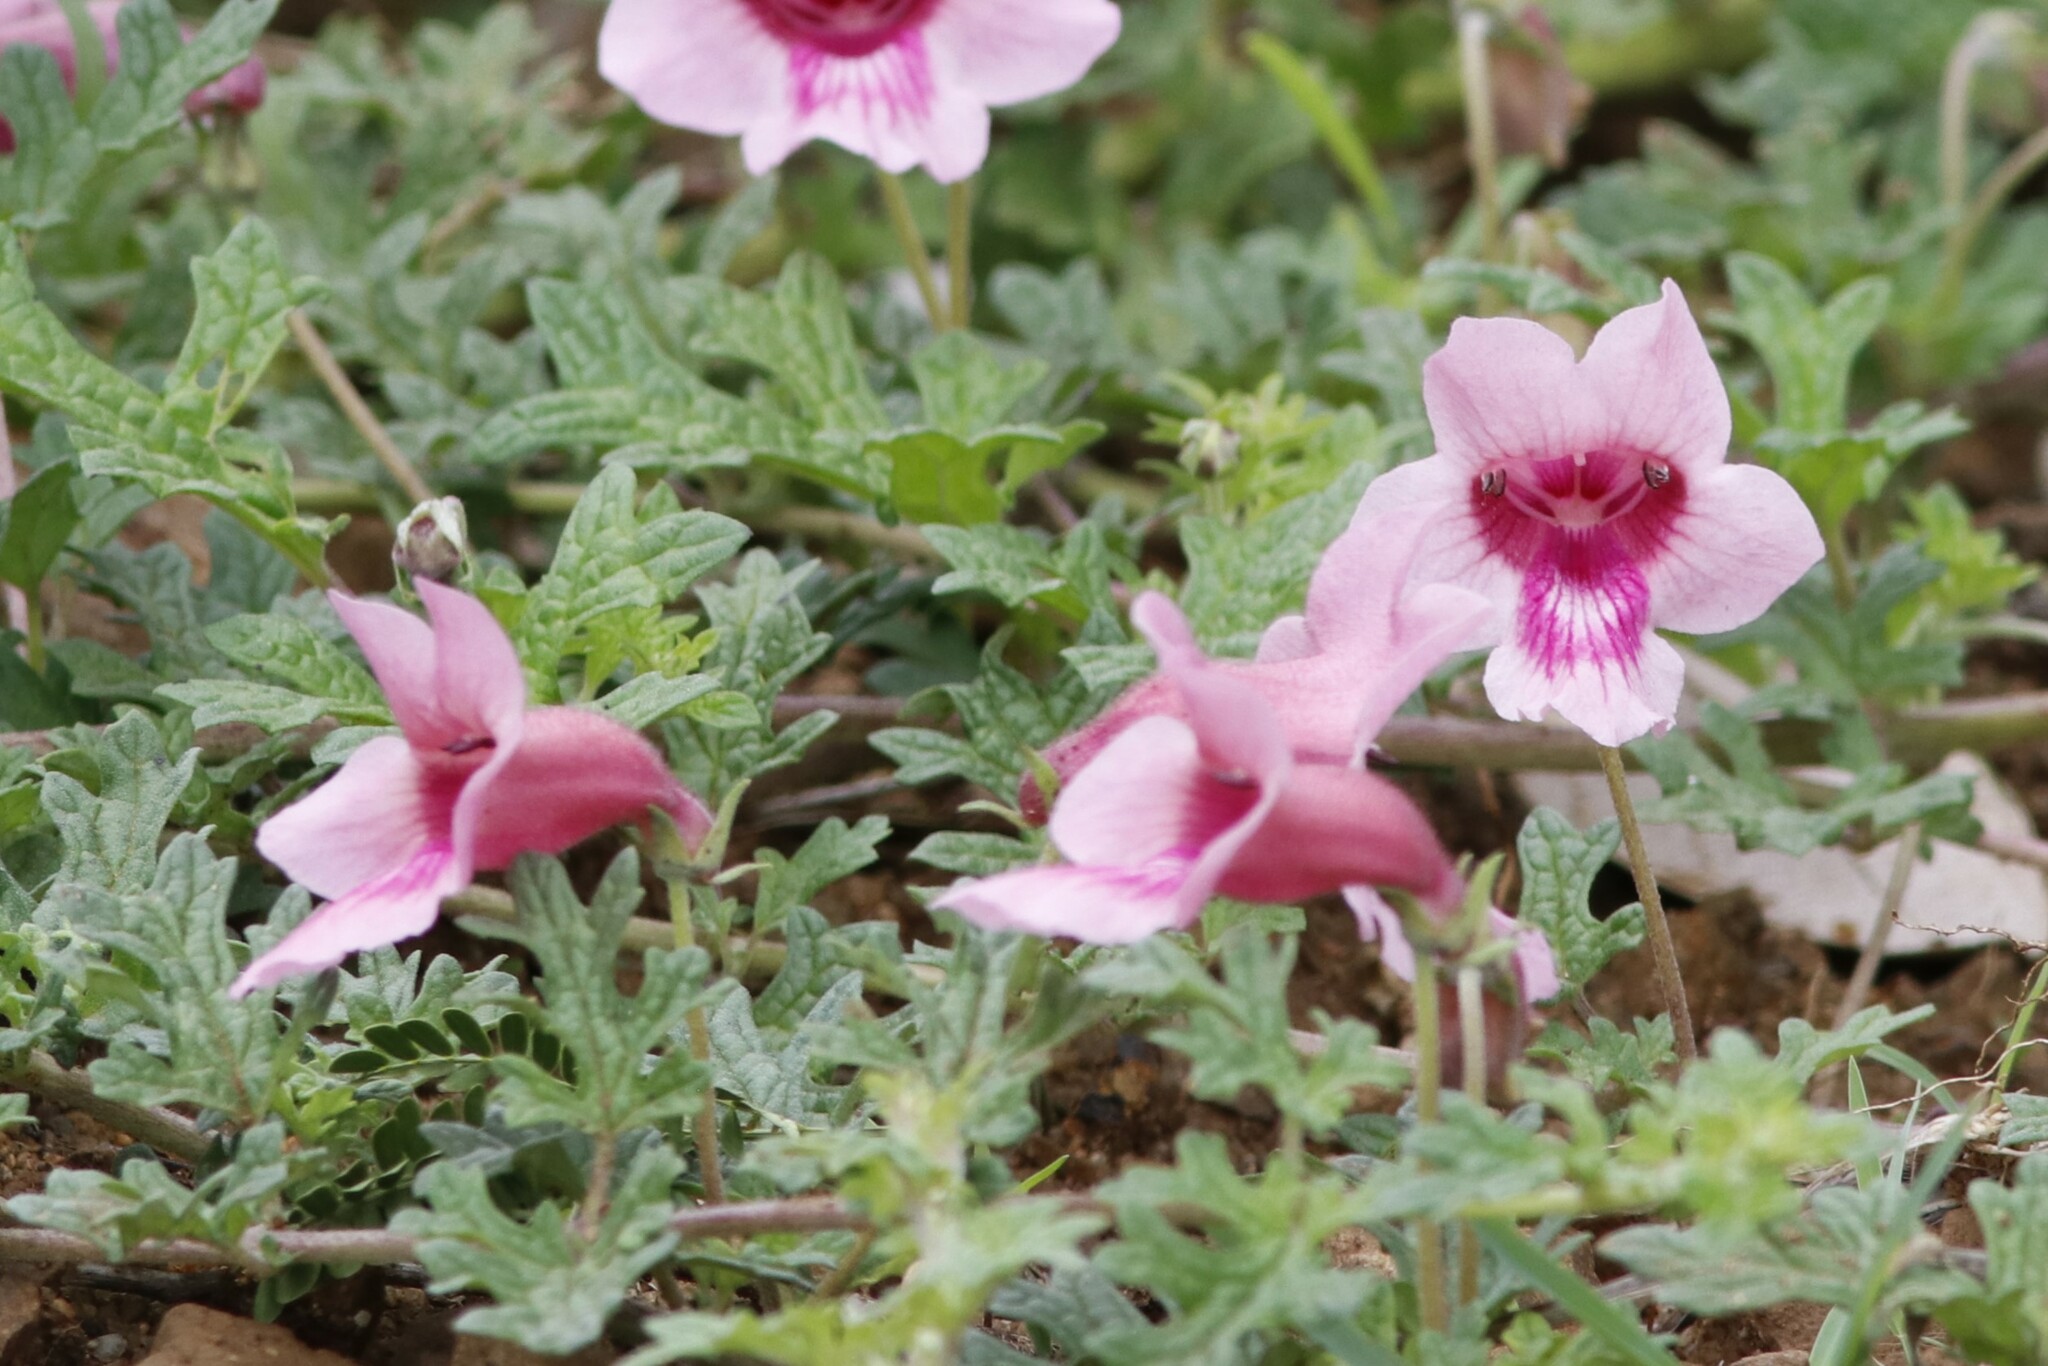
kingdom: Plantae
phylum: Tracheophyta
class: Magnoliopsida
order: Lamiales
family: Pedaliaceae
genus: Dicerocaryum
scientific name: Dicerocaryum senecioides
